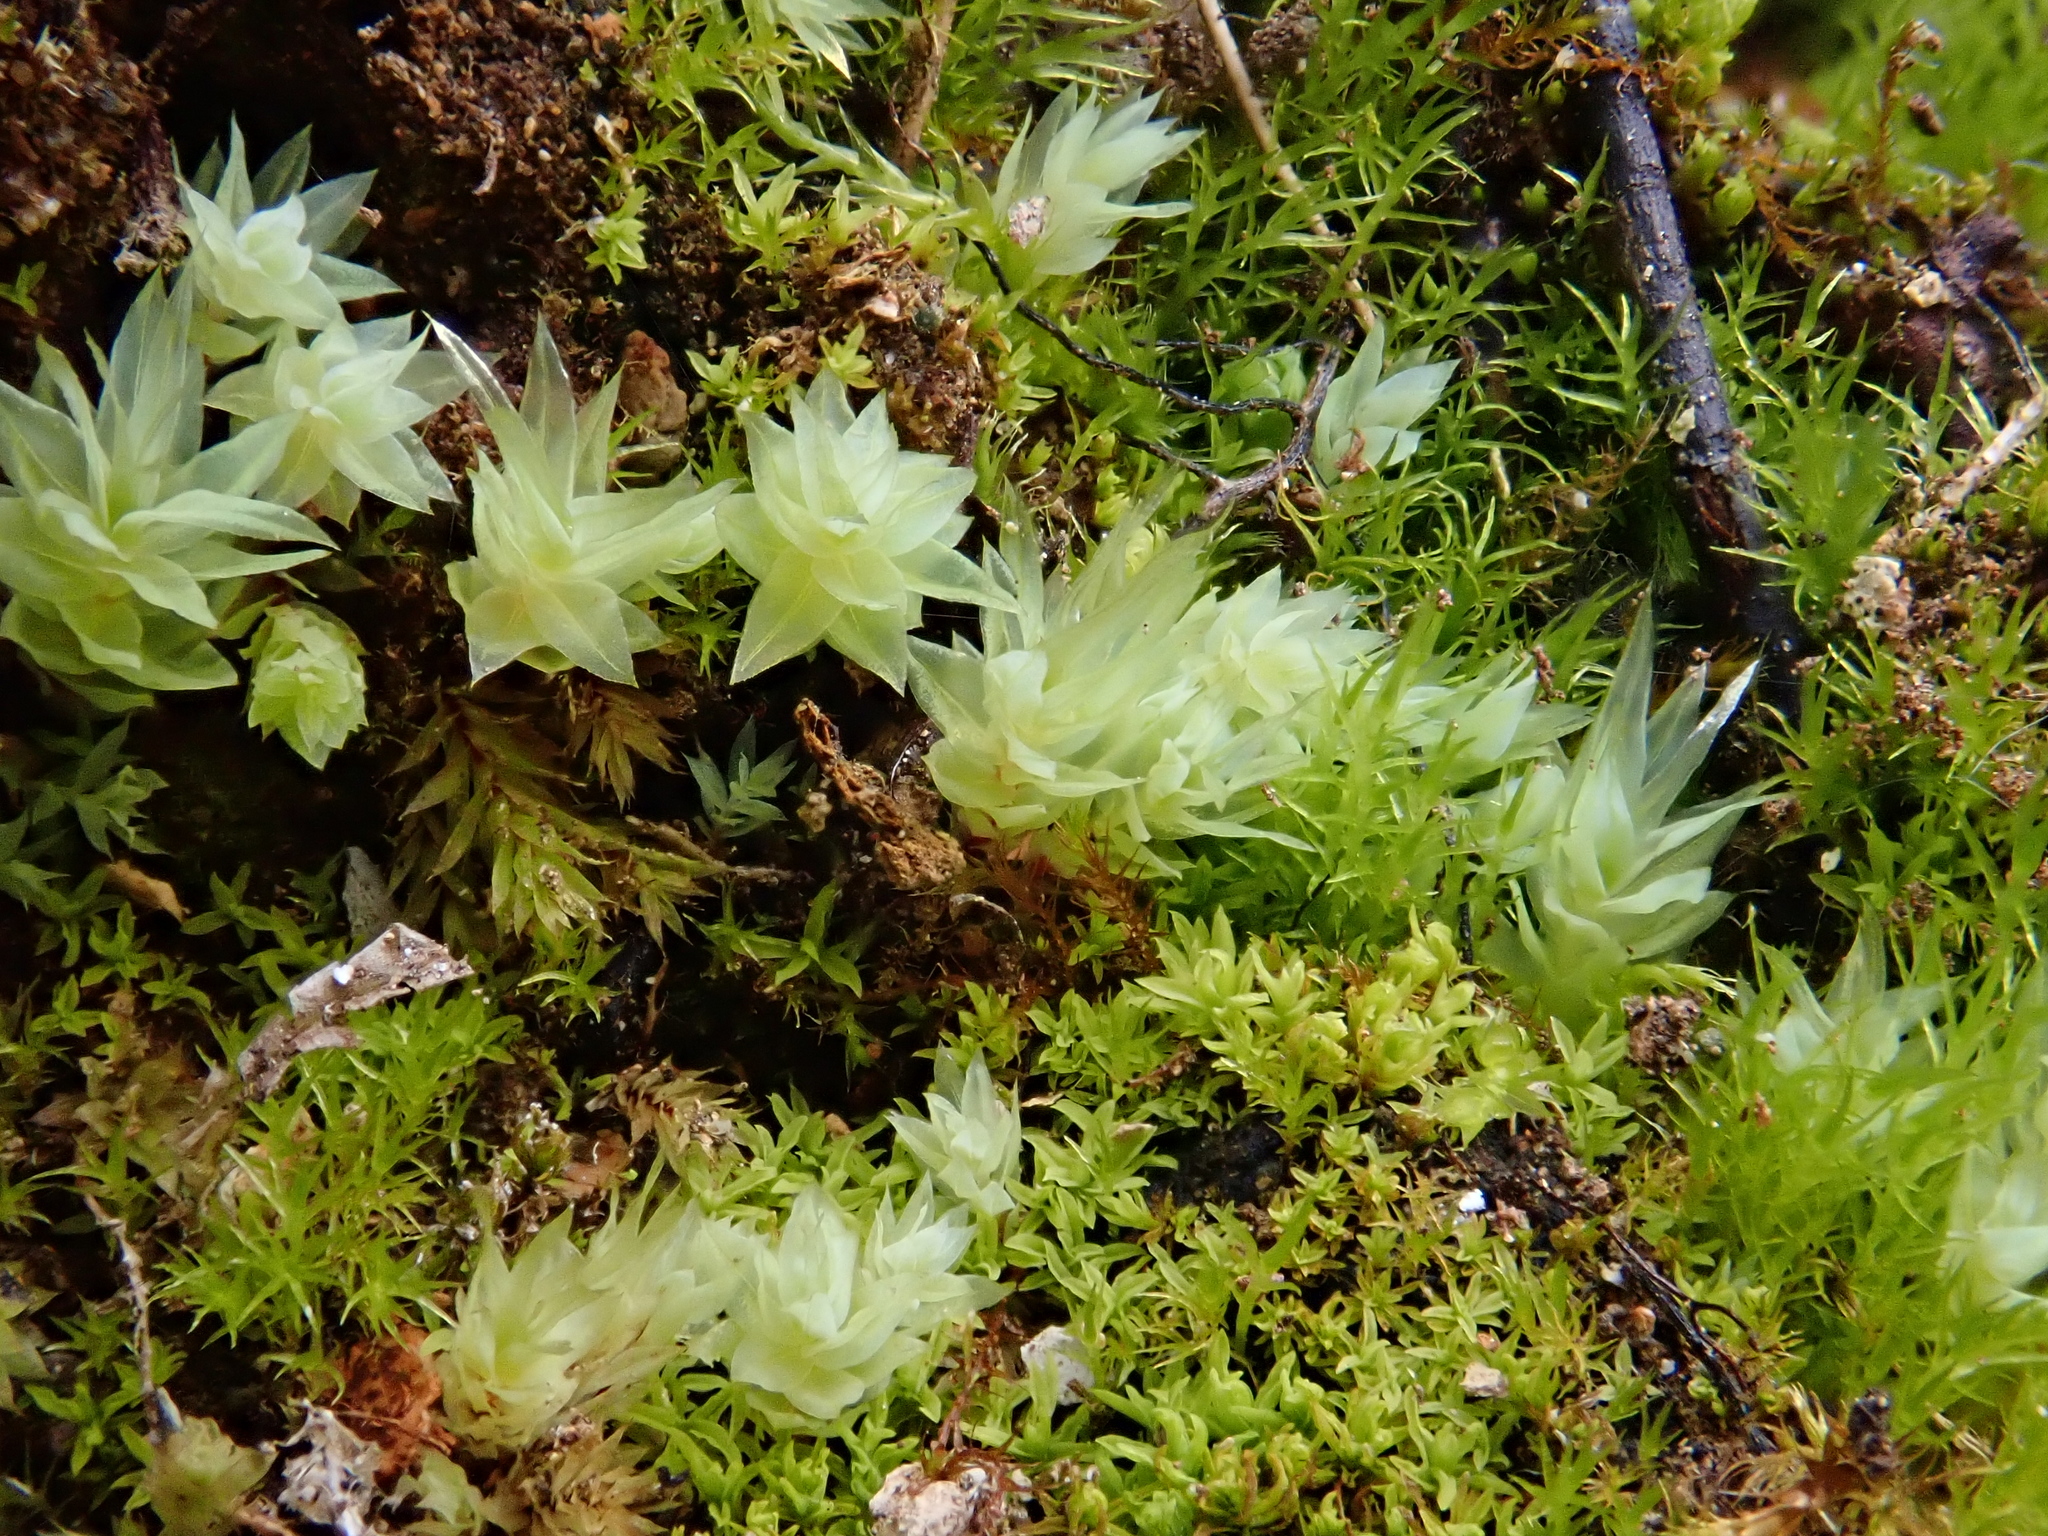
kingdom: Plantae
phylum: Bryophyta
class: Bryopsida
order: Bryales
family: Mniaceae
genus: Pohlia
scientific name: Pohlia cruda
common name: Opal nodding moss
